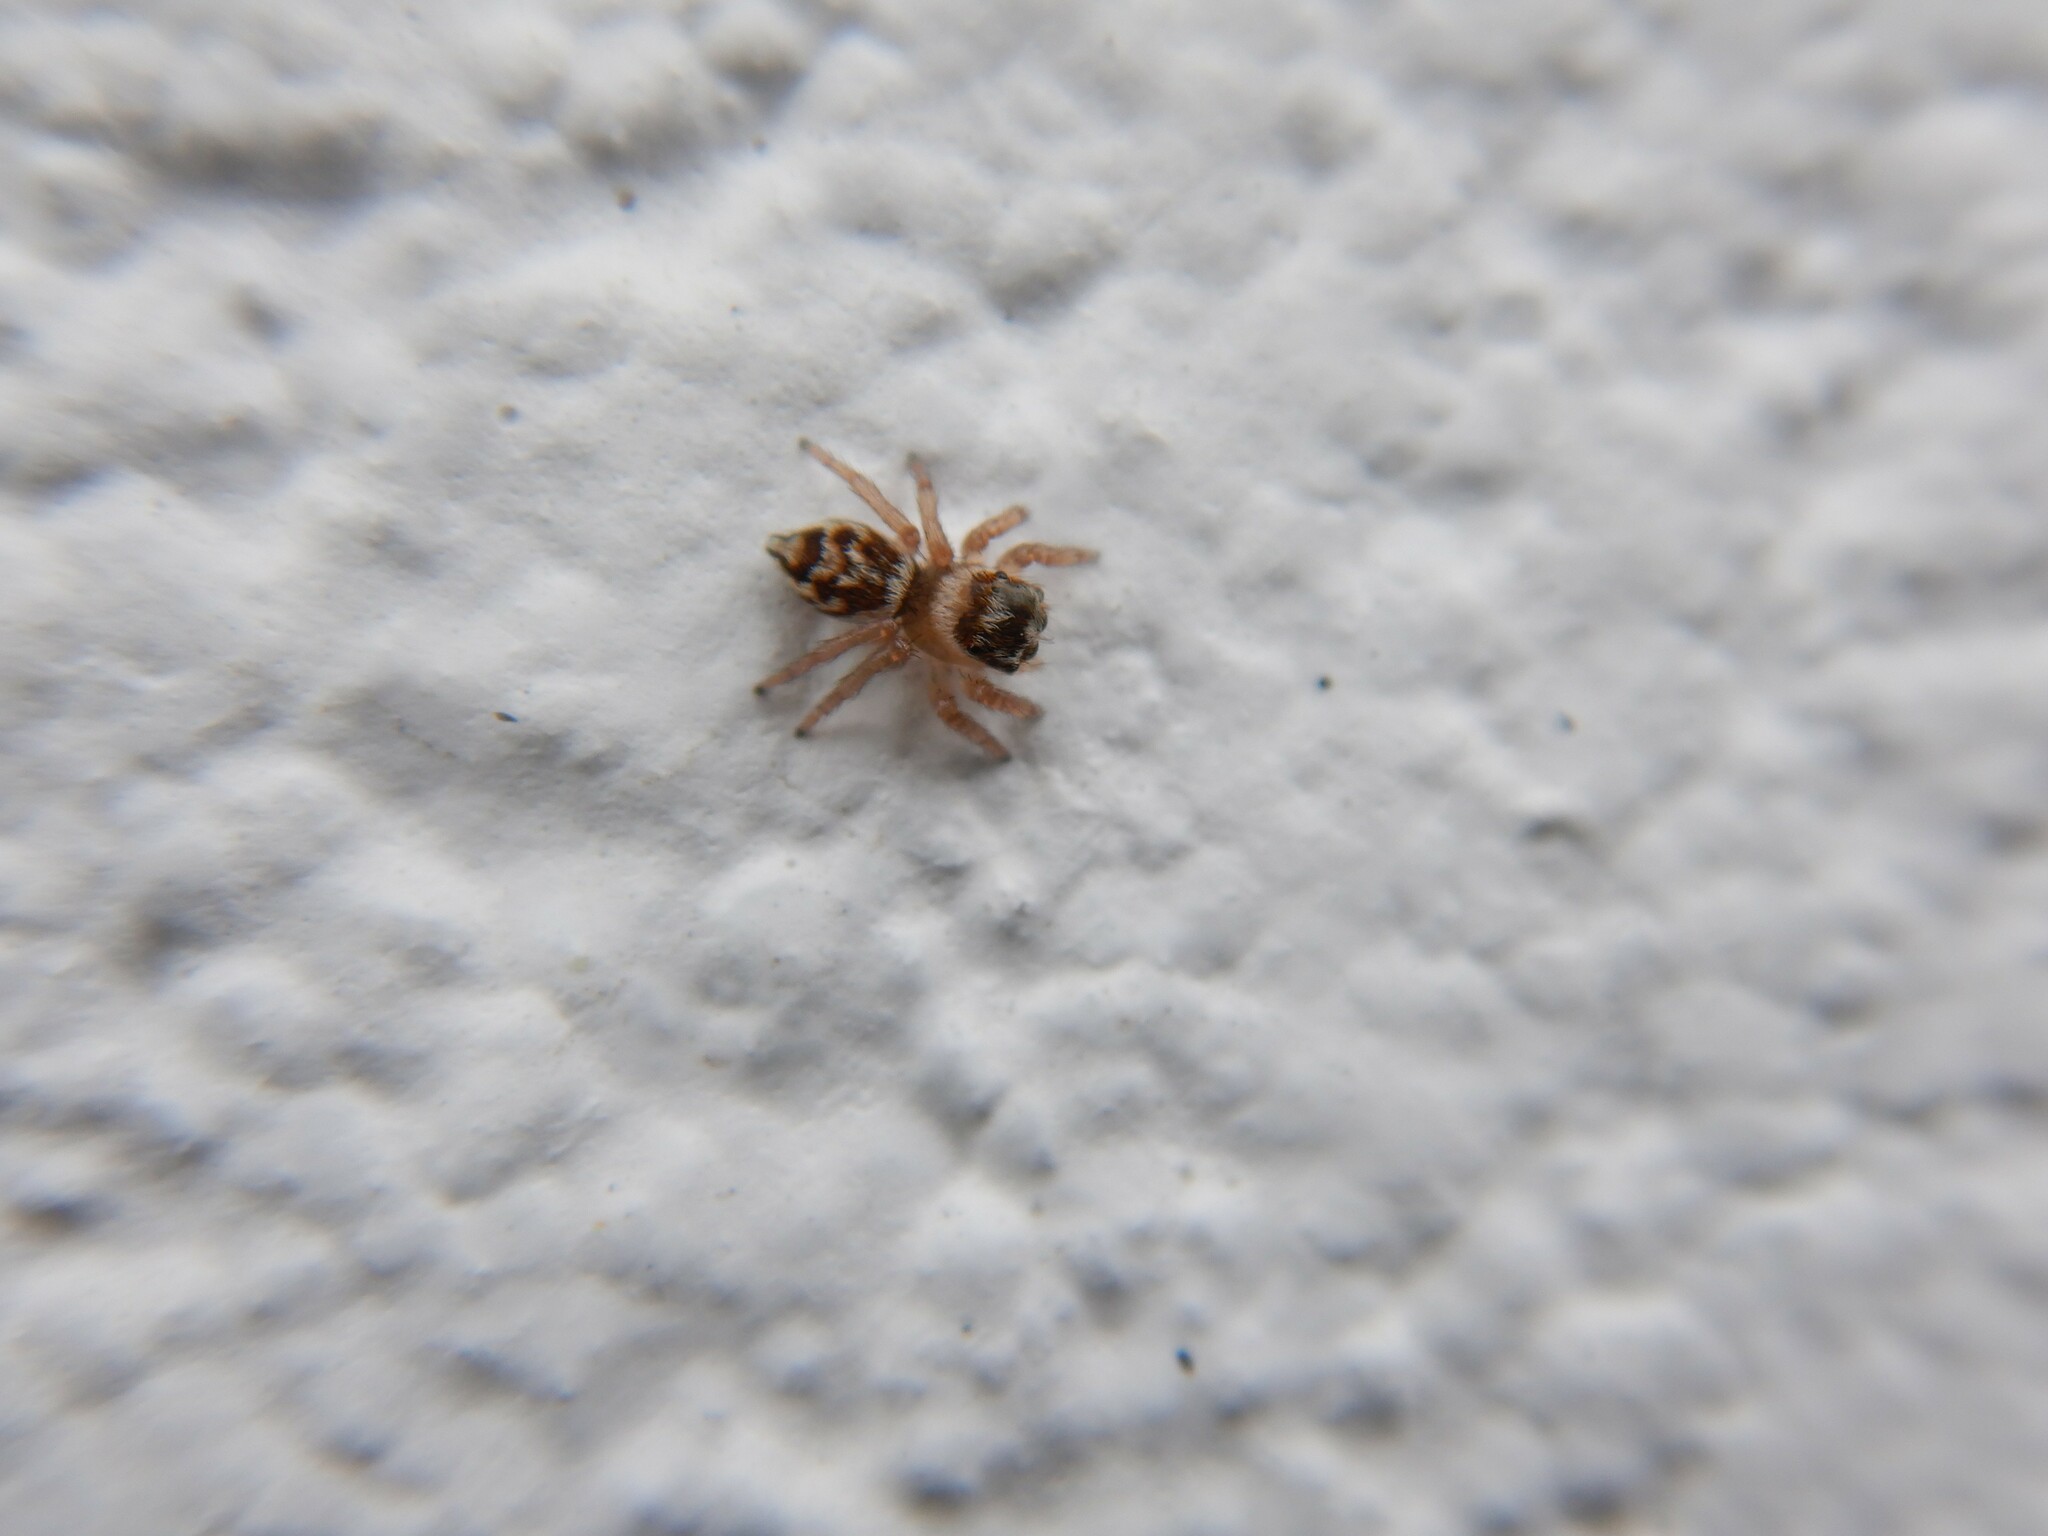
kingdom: Animalia
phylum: Arthropoda
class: Arachnida
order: Araneae
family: Salticidae
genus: Maratus
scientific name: Maratus griseus
